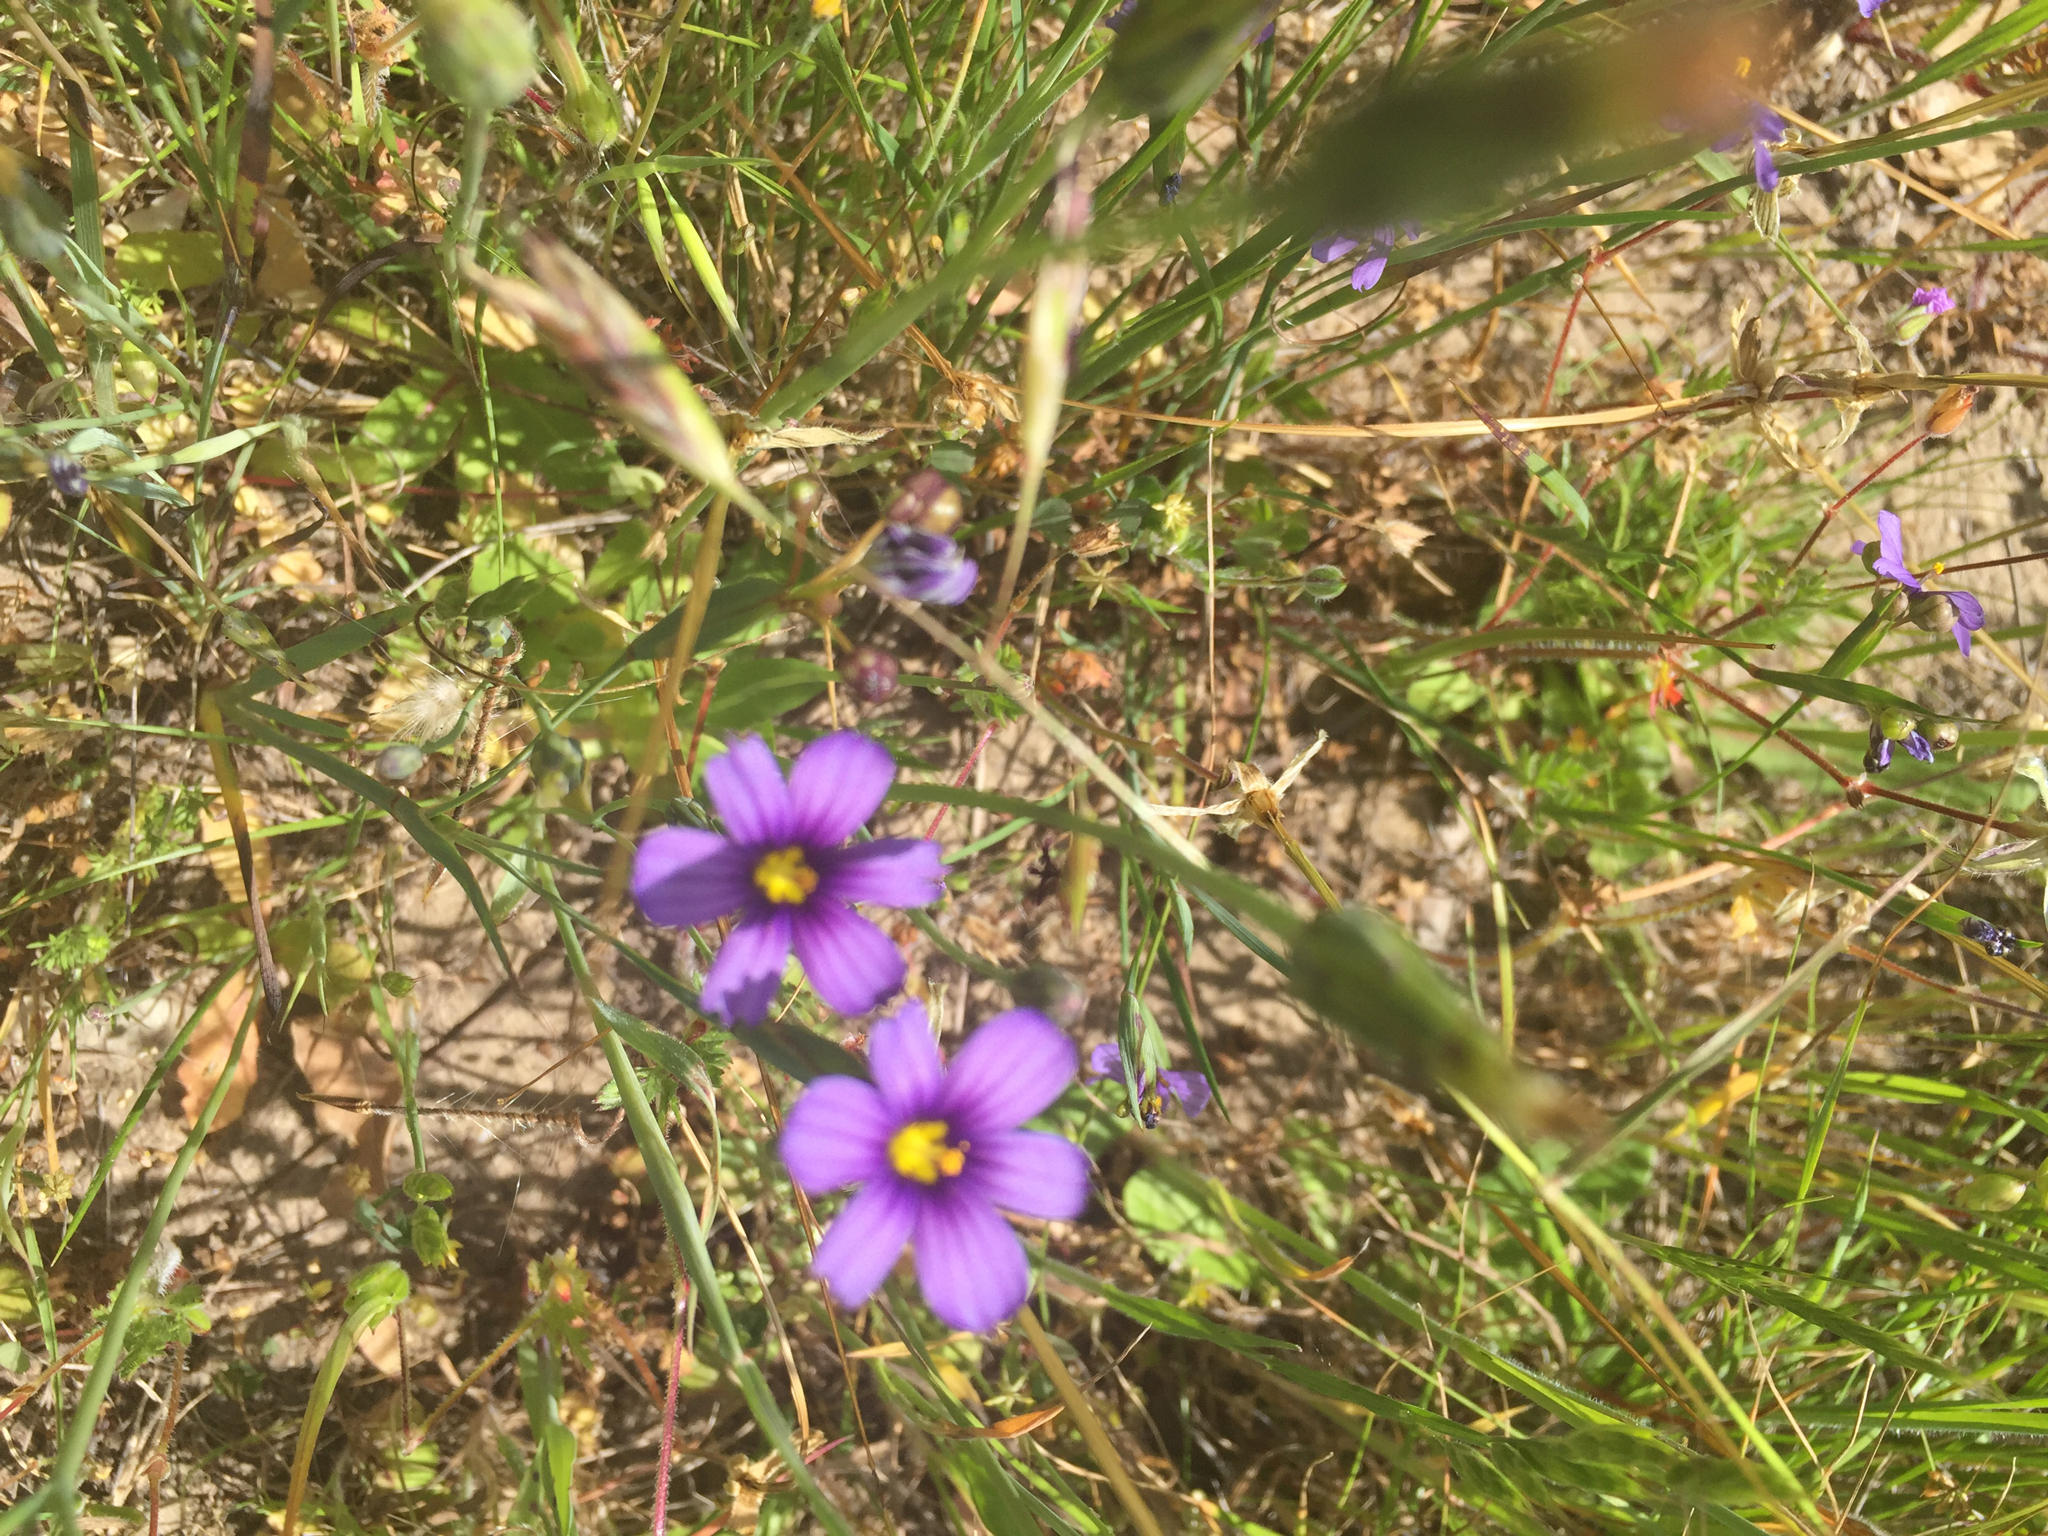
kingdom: Plantae
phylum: Tracheophyta
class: Liliopsida
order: Asparagales
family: Iridaceae
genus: Sisyrinchium
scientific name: Sisyrinchium bellum
